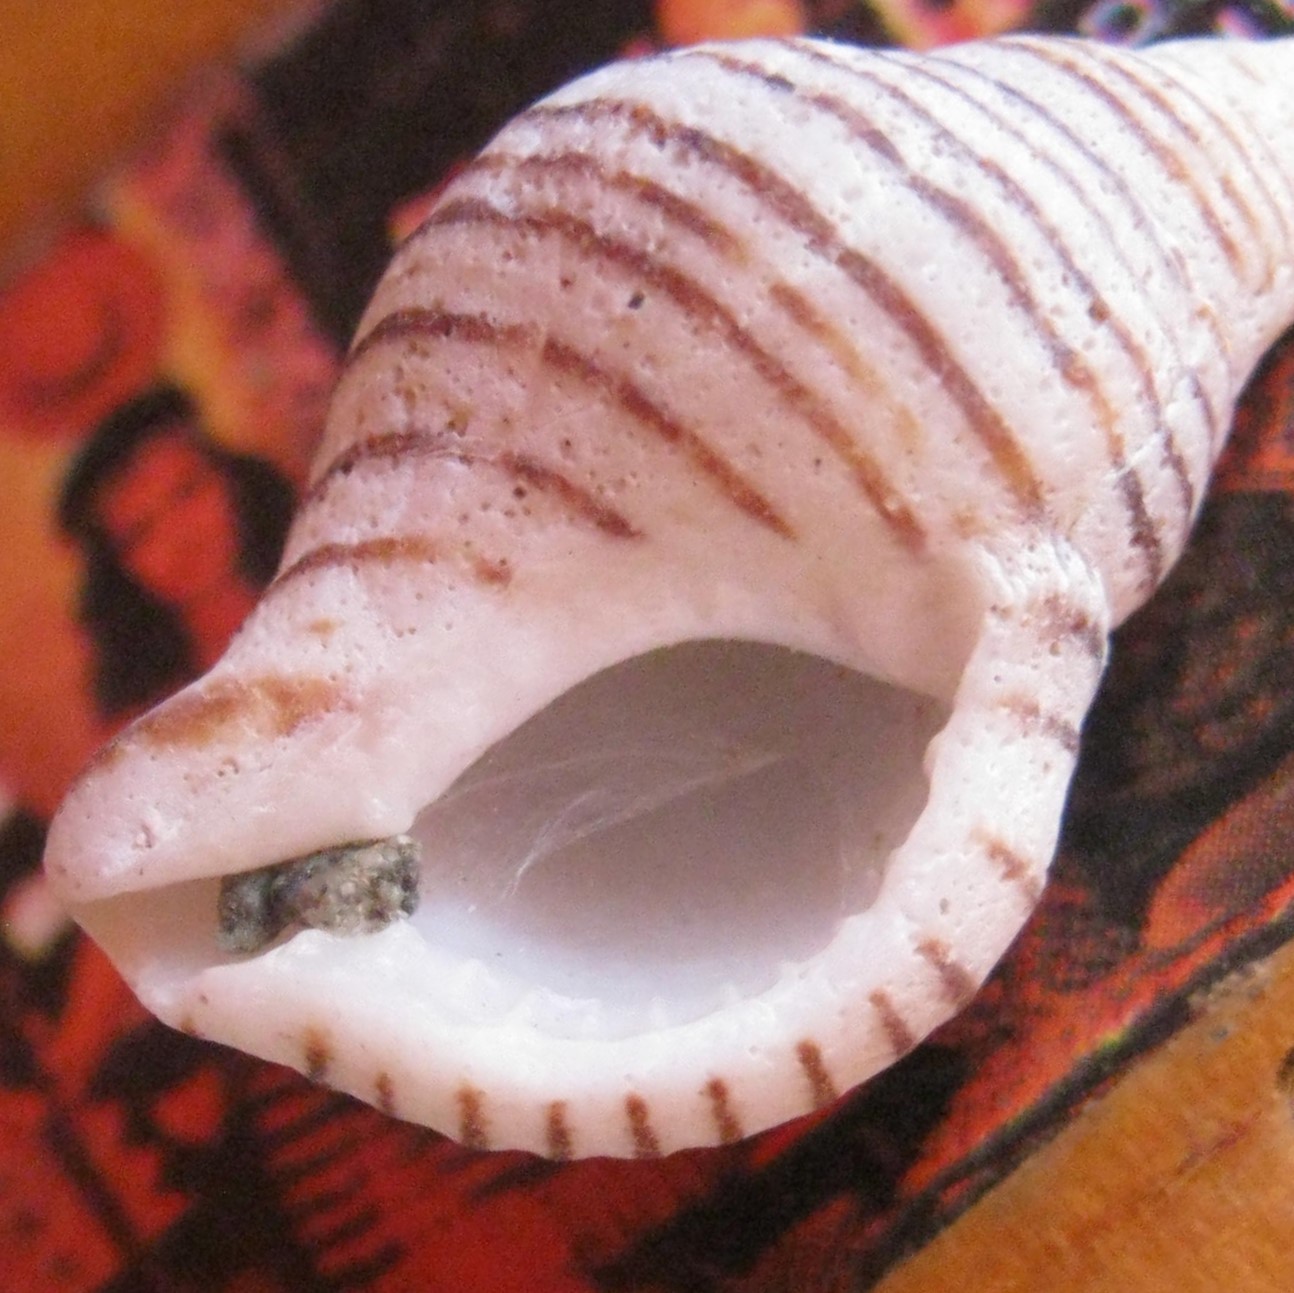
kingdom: Animalia
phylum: Mollusca
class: Gastropoda
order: Neogastropoda
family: Tudiclidae
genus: Buccinulum
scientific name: Buccinulum linea
